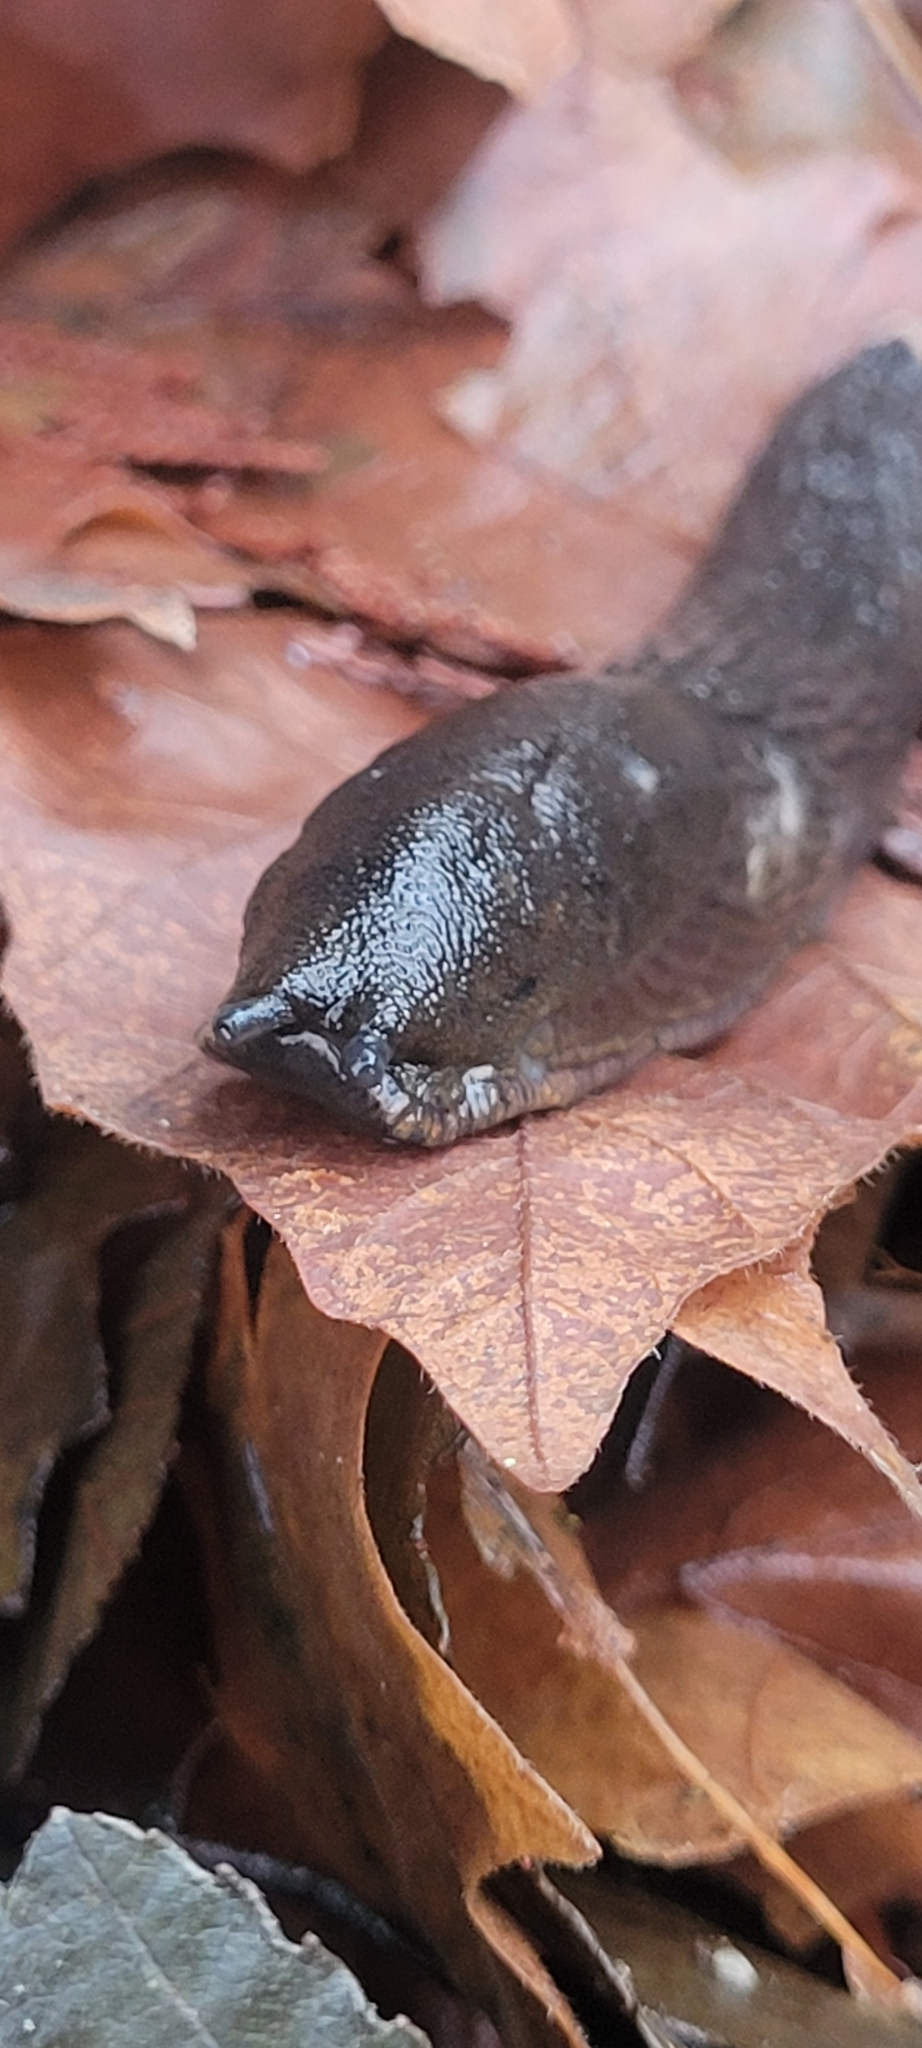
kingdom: Animalia
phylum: Mollusca
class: Gastropoda
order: Stylommatophora
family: Arionidae
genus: Arion
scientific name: Arion
